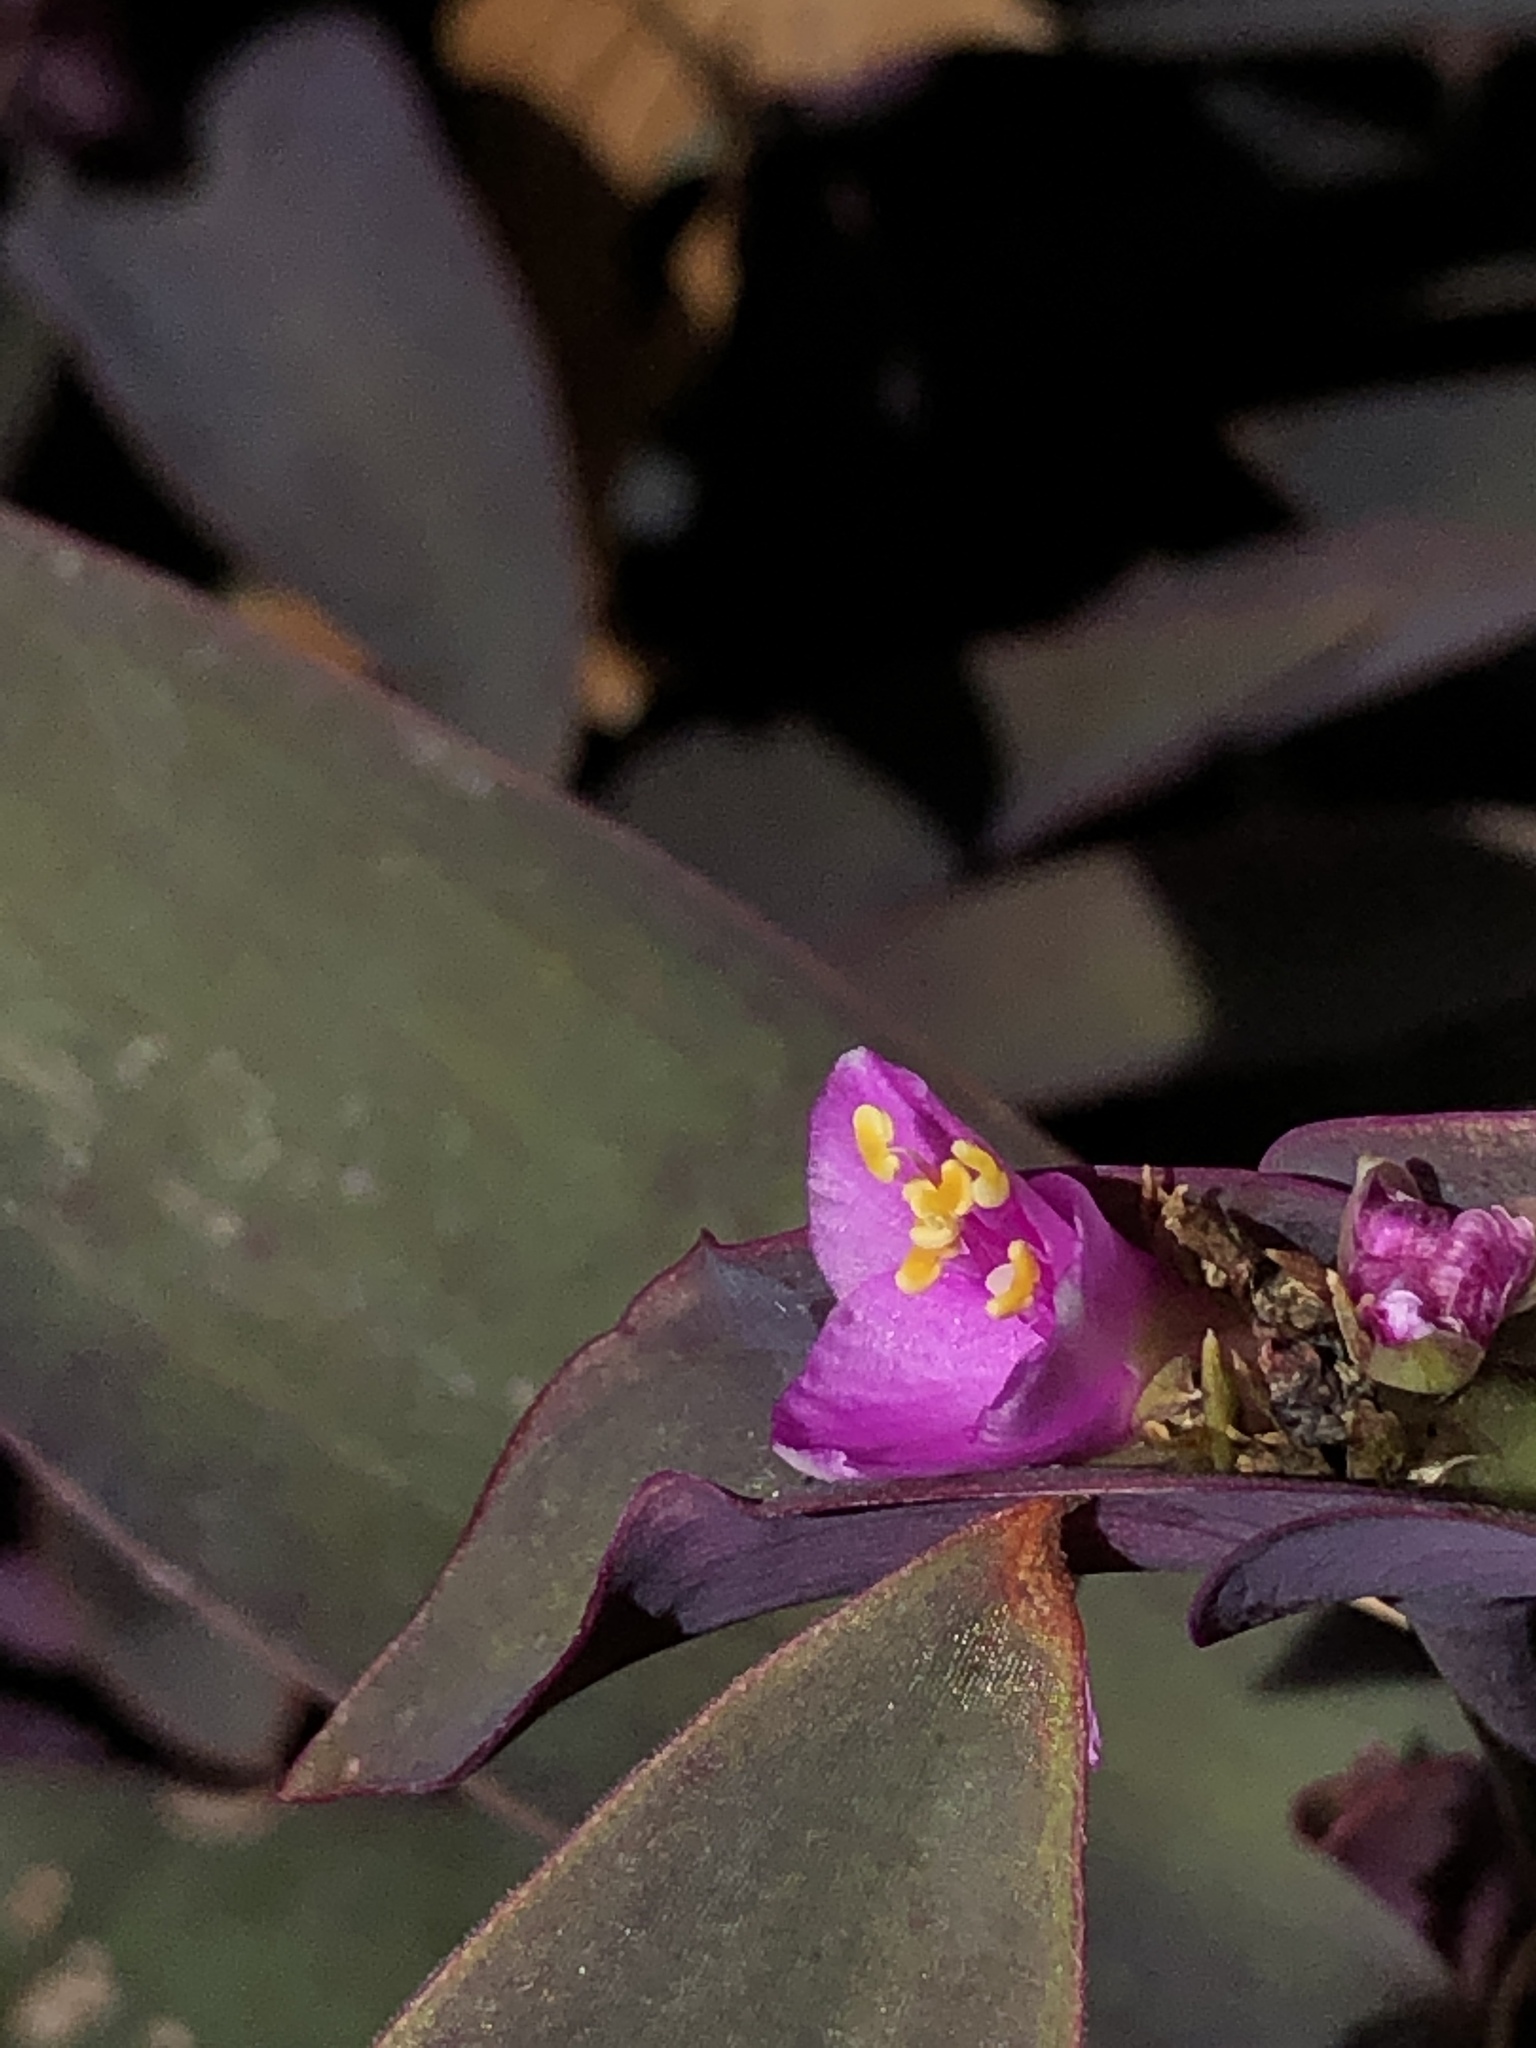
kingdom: Plantae
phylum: Tracheophyta
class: Liliopsida
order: Commelinales
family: Commelinaceae
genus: Tradescantia
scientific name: Tradescantia pallida
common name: Purpleheart
